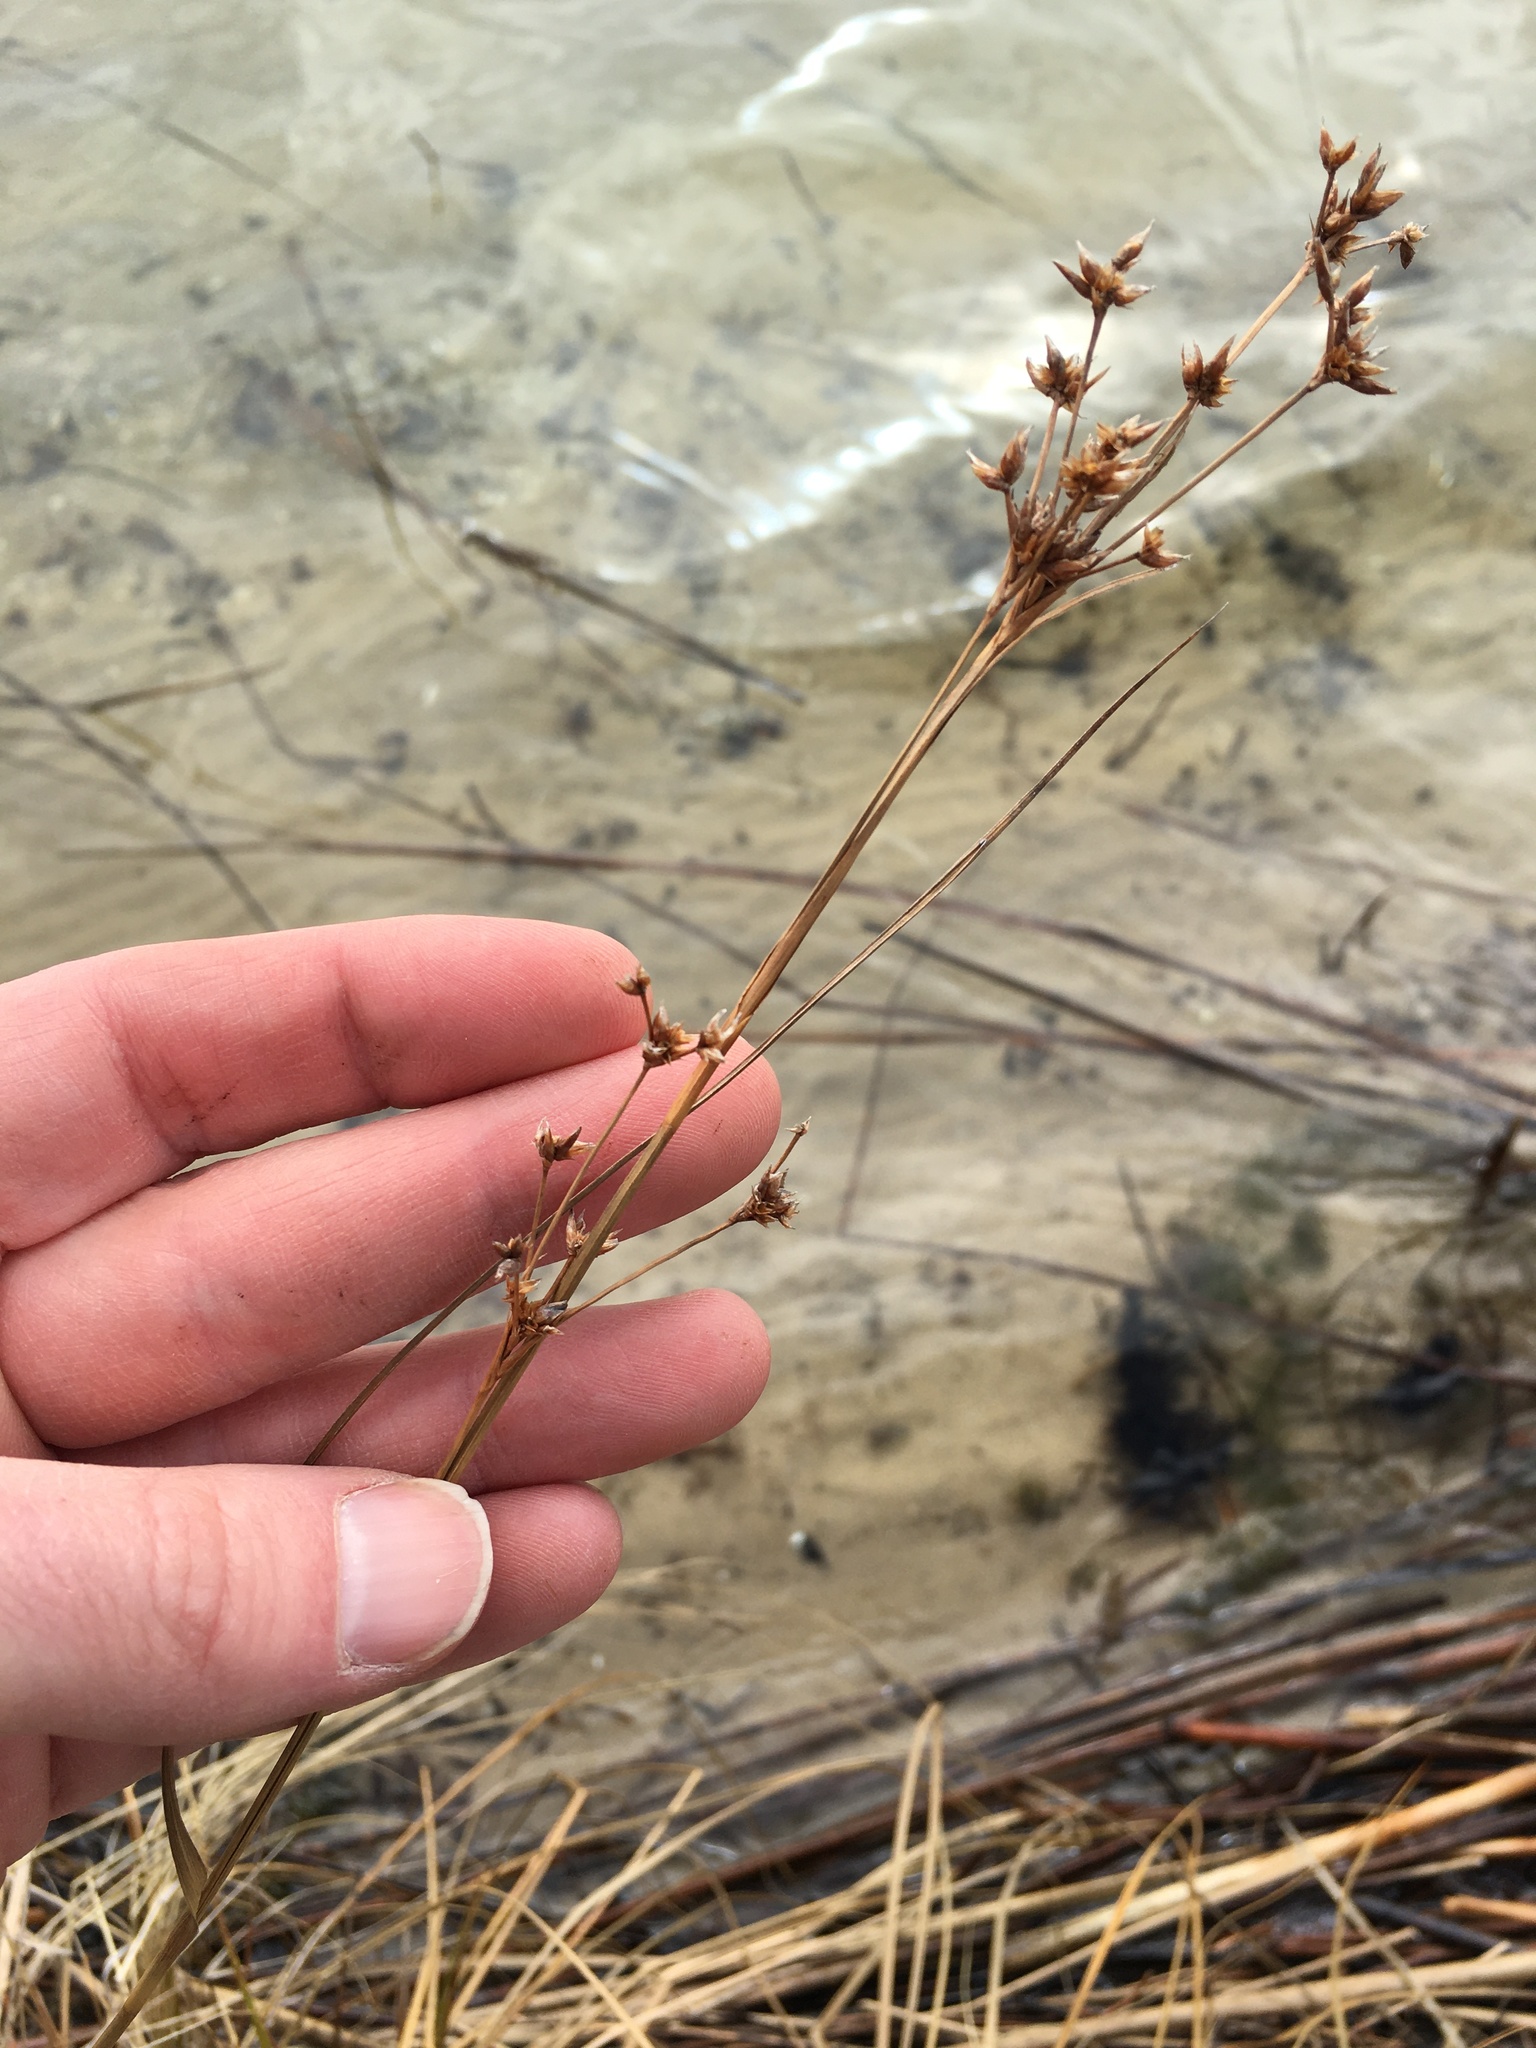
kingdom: Plantae
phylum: Tracheophyta
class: Liliopsida
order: Poales
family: Cyperaceae
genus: Cladium
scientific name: Cladium mariscoides
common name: Smooth sawgrass
